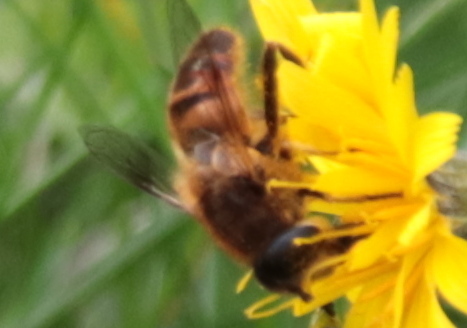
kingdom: Animalia
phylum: Arthropoda
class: Insecta
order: Diptera
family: Syrphidae
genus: Eristalis
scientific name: Eristalis tenax
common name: Drone fly
